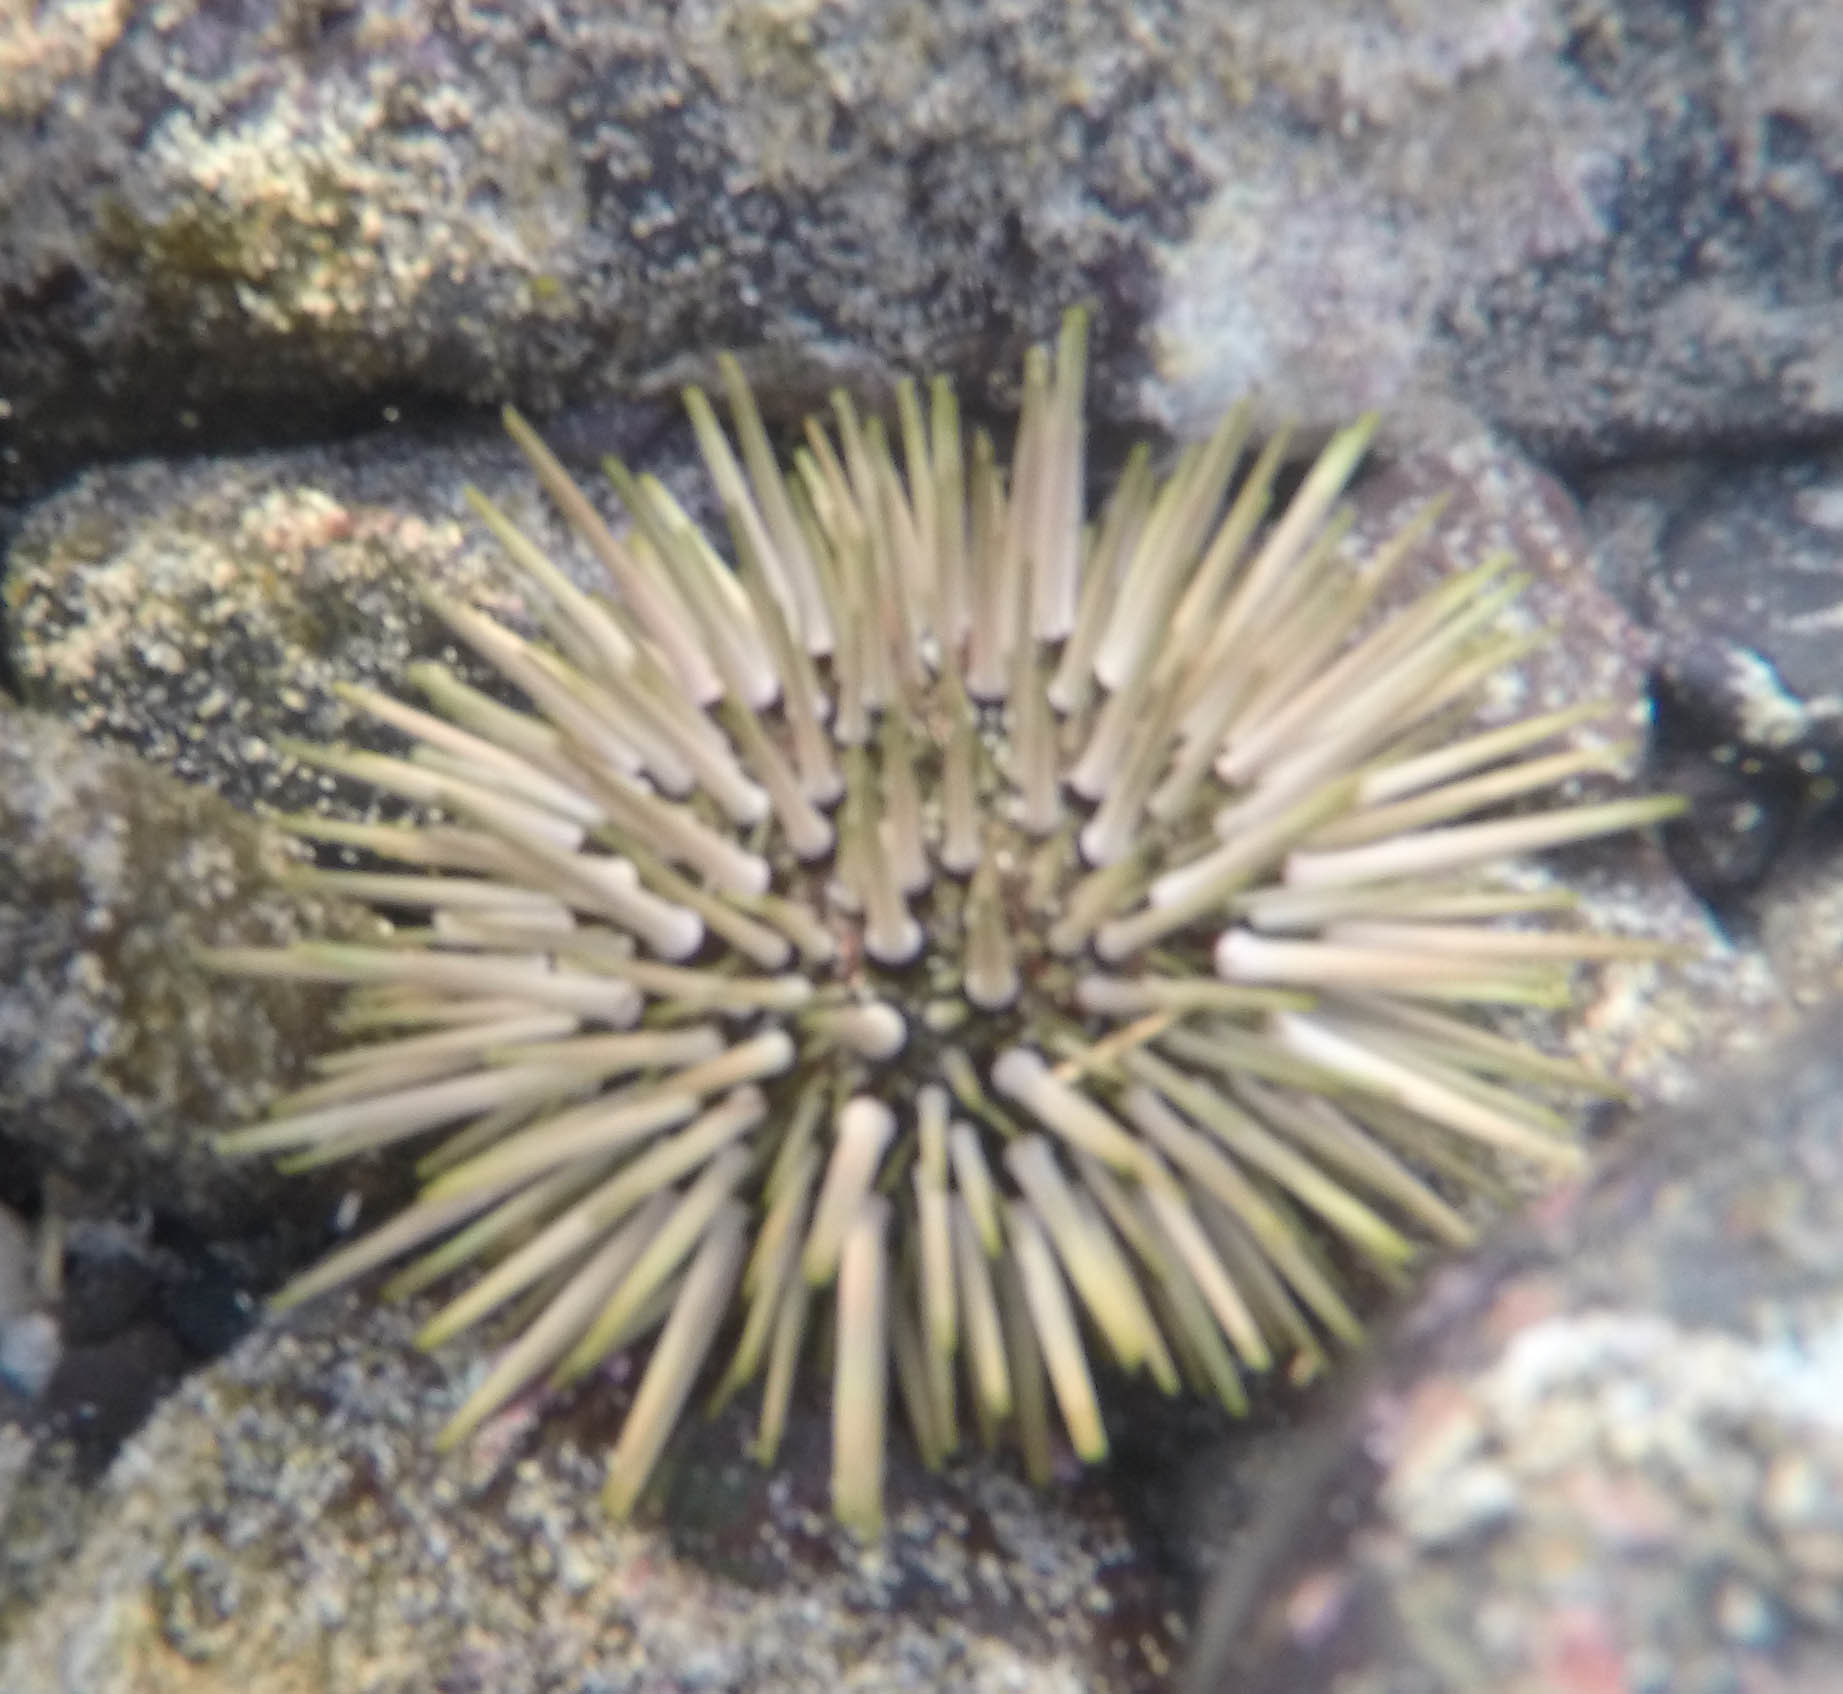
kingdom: Animalia
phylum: Echinodermata
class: Echinoidea
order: Camarodonta
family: Echinometridae
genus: Echinometra
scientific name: Echinometra mathaei
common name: Rock-boring urchin
